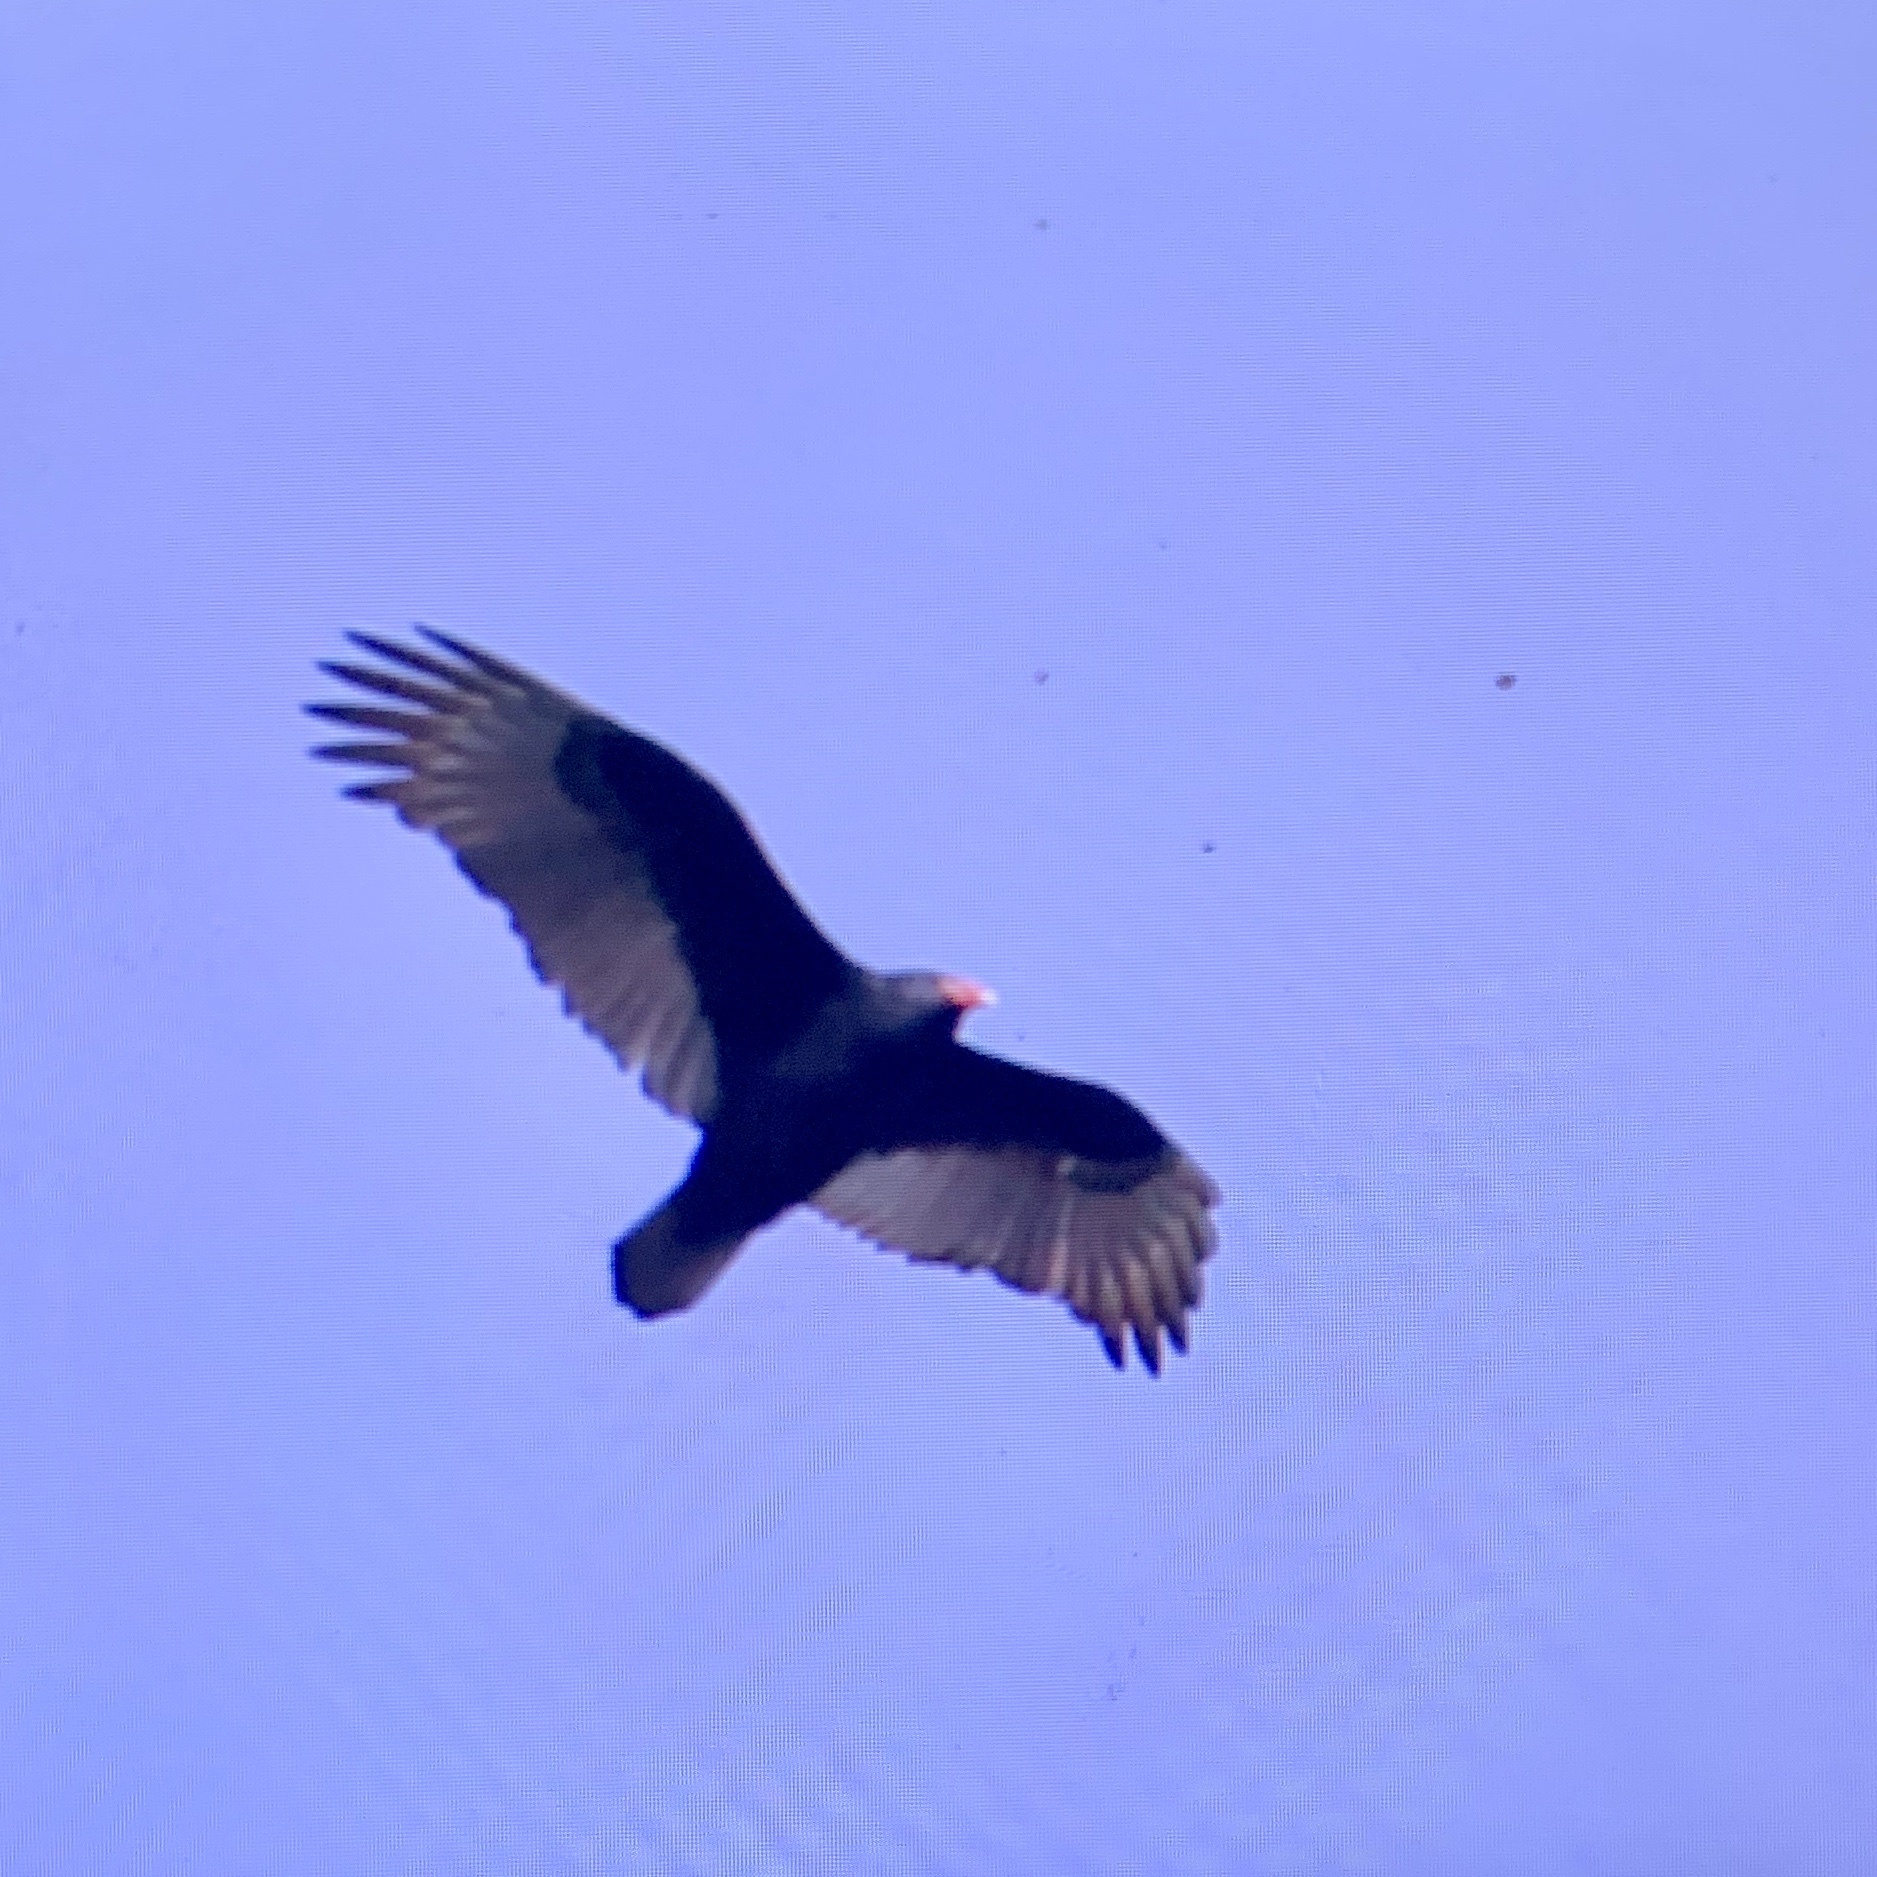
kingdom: Animalia
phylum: Chordata
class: Aves
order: Accipitriformes
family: Cathartidae
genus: Cathartes
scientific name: Cathartes aura
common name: Turkey vulture
